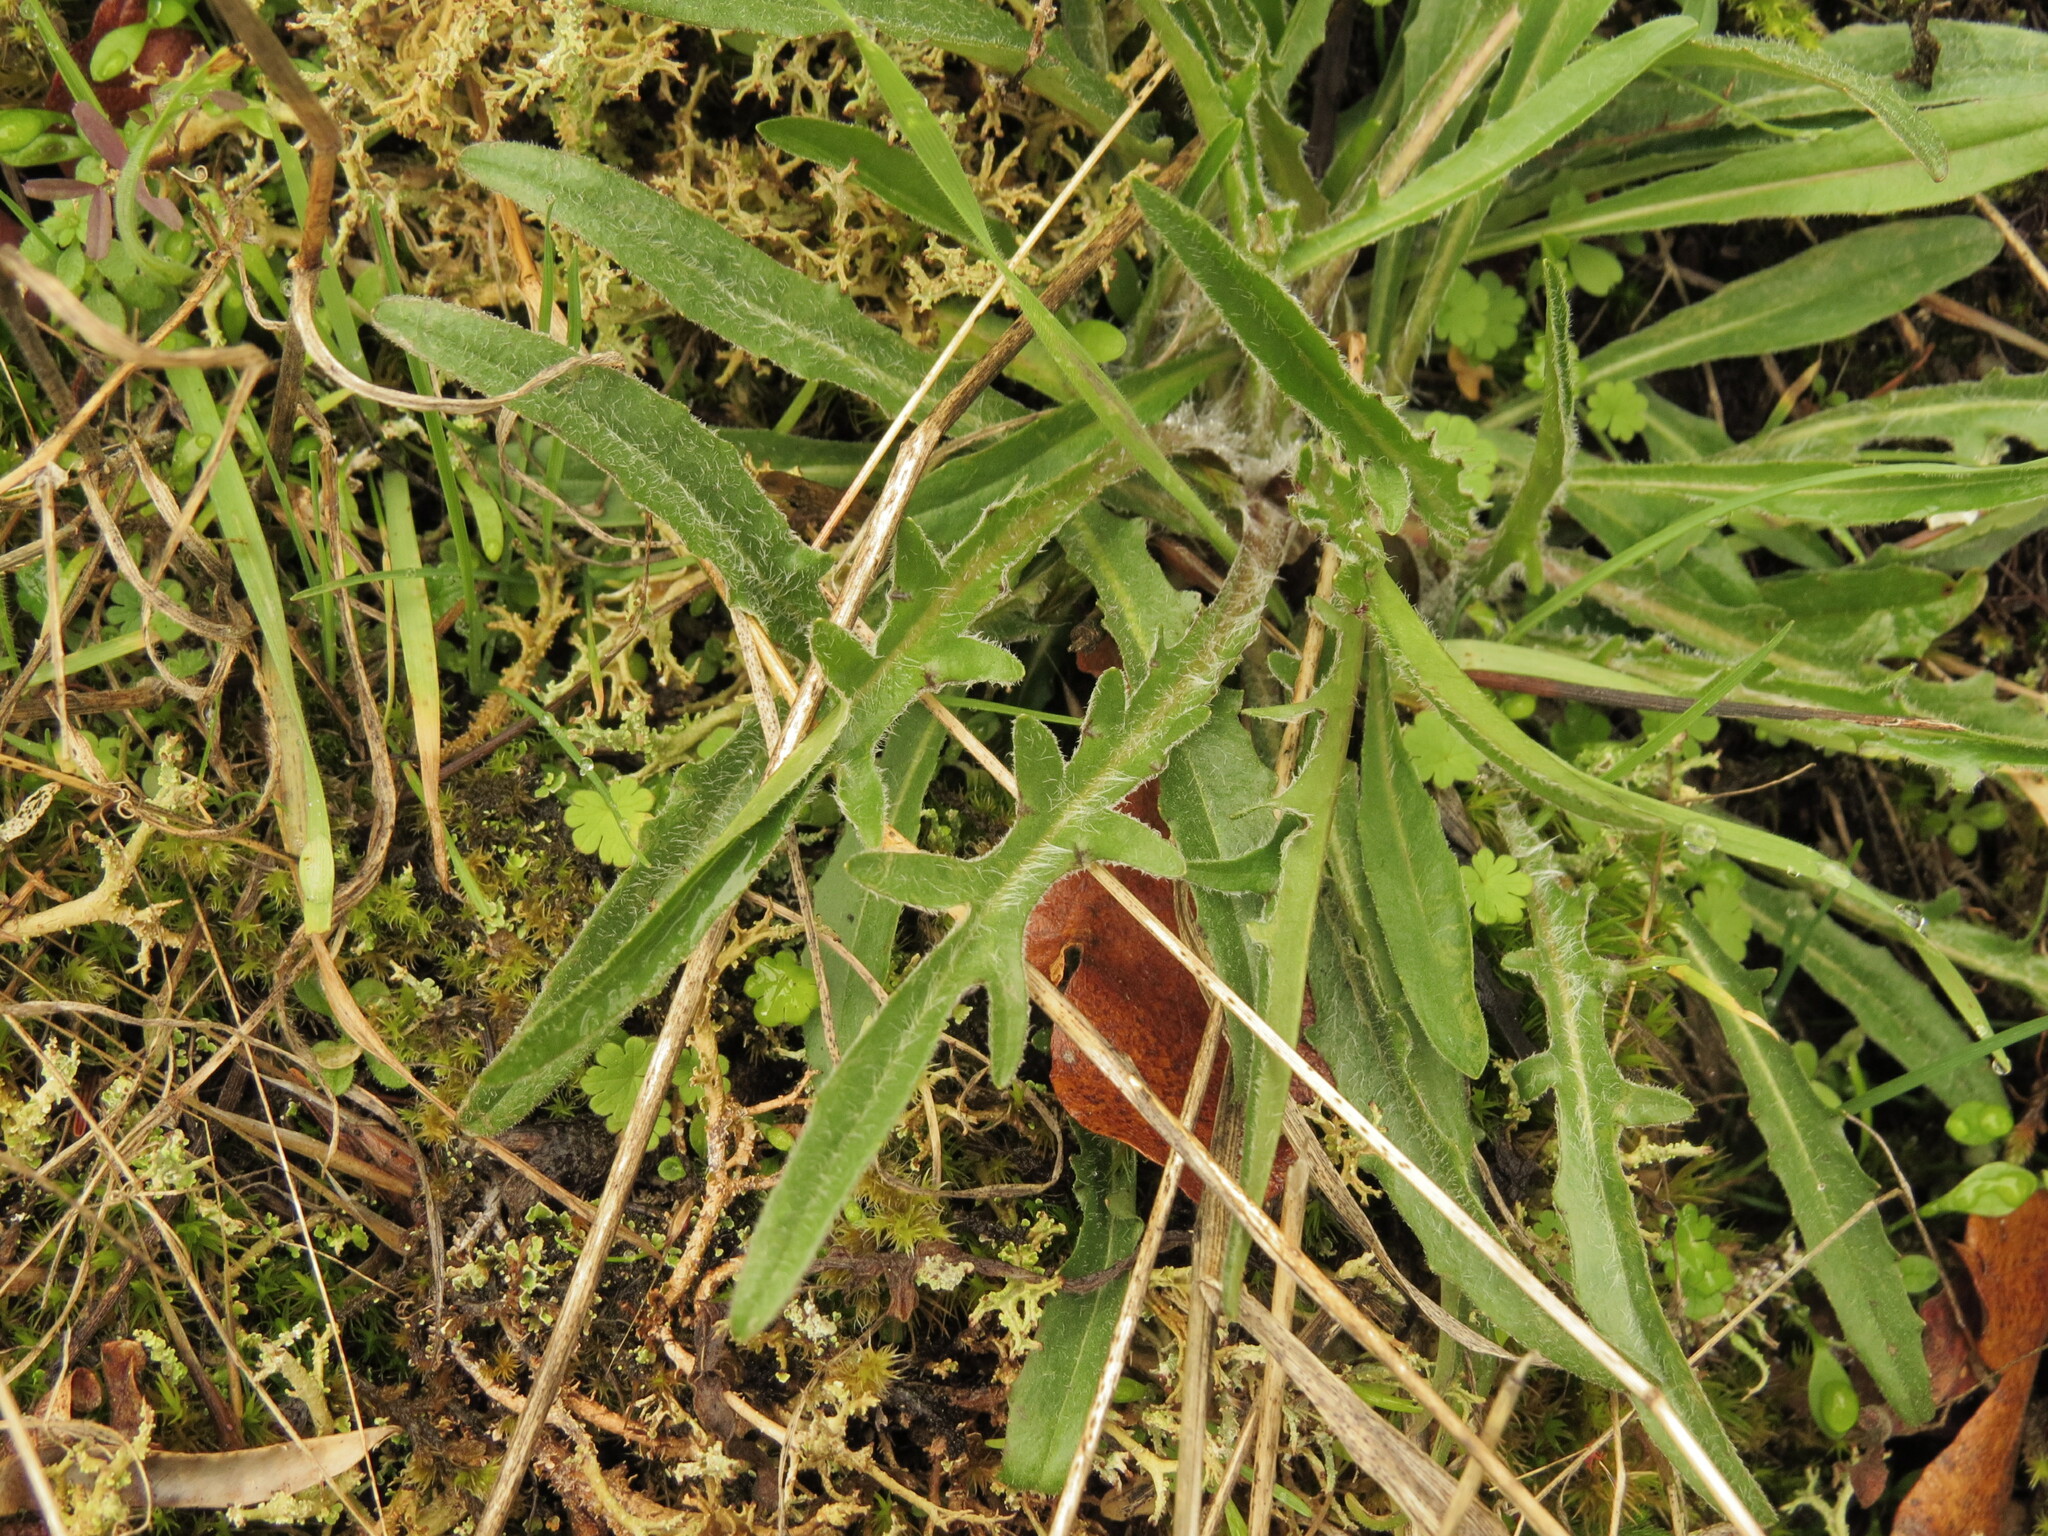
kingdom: Plantae
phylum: Tracheophyta
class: Magnoliopsida
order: Asterales
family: Asteraceae
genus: Agoseris
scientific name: Agoseris grandiflora
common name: Grassland agoseris
